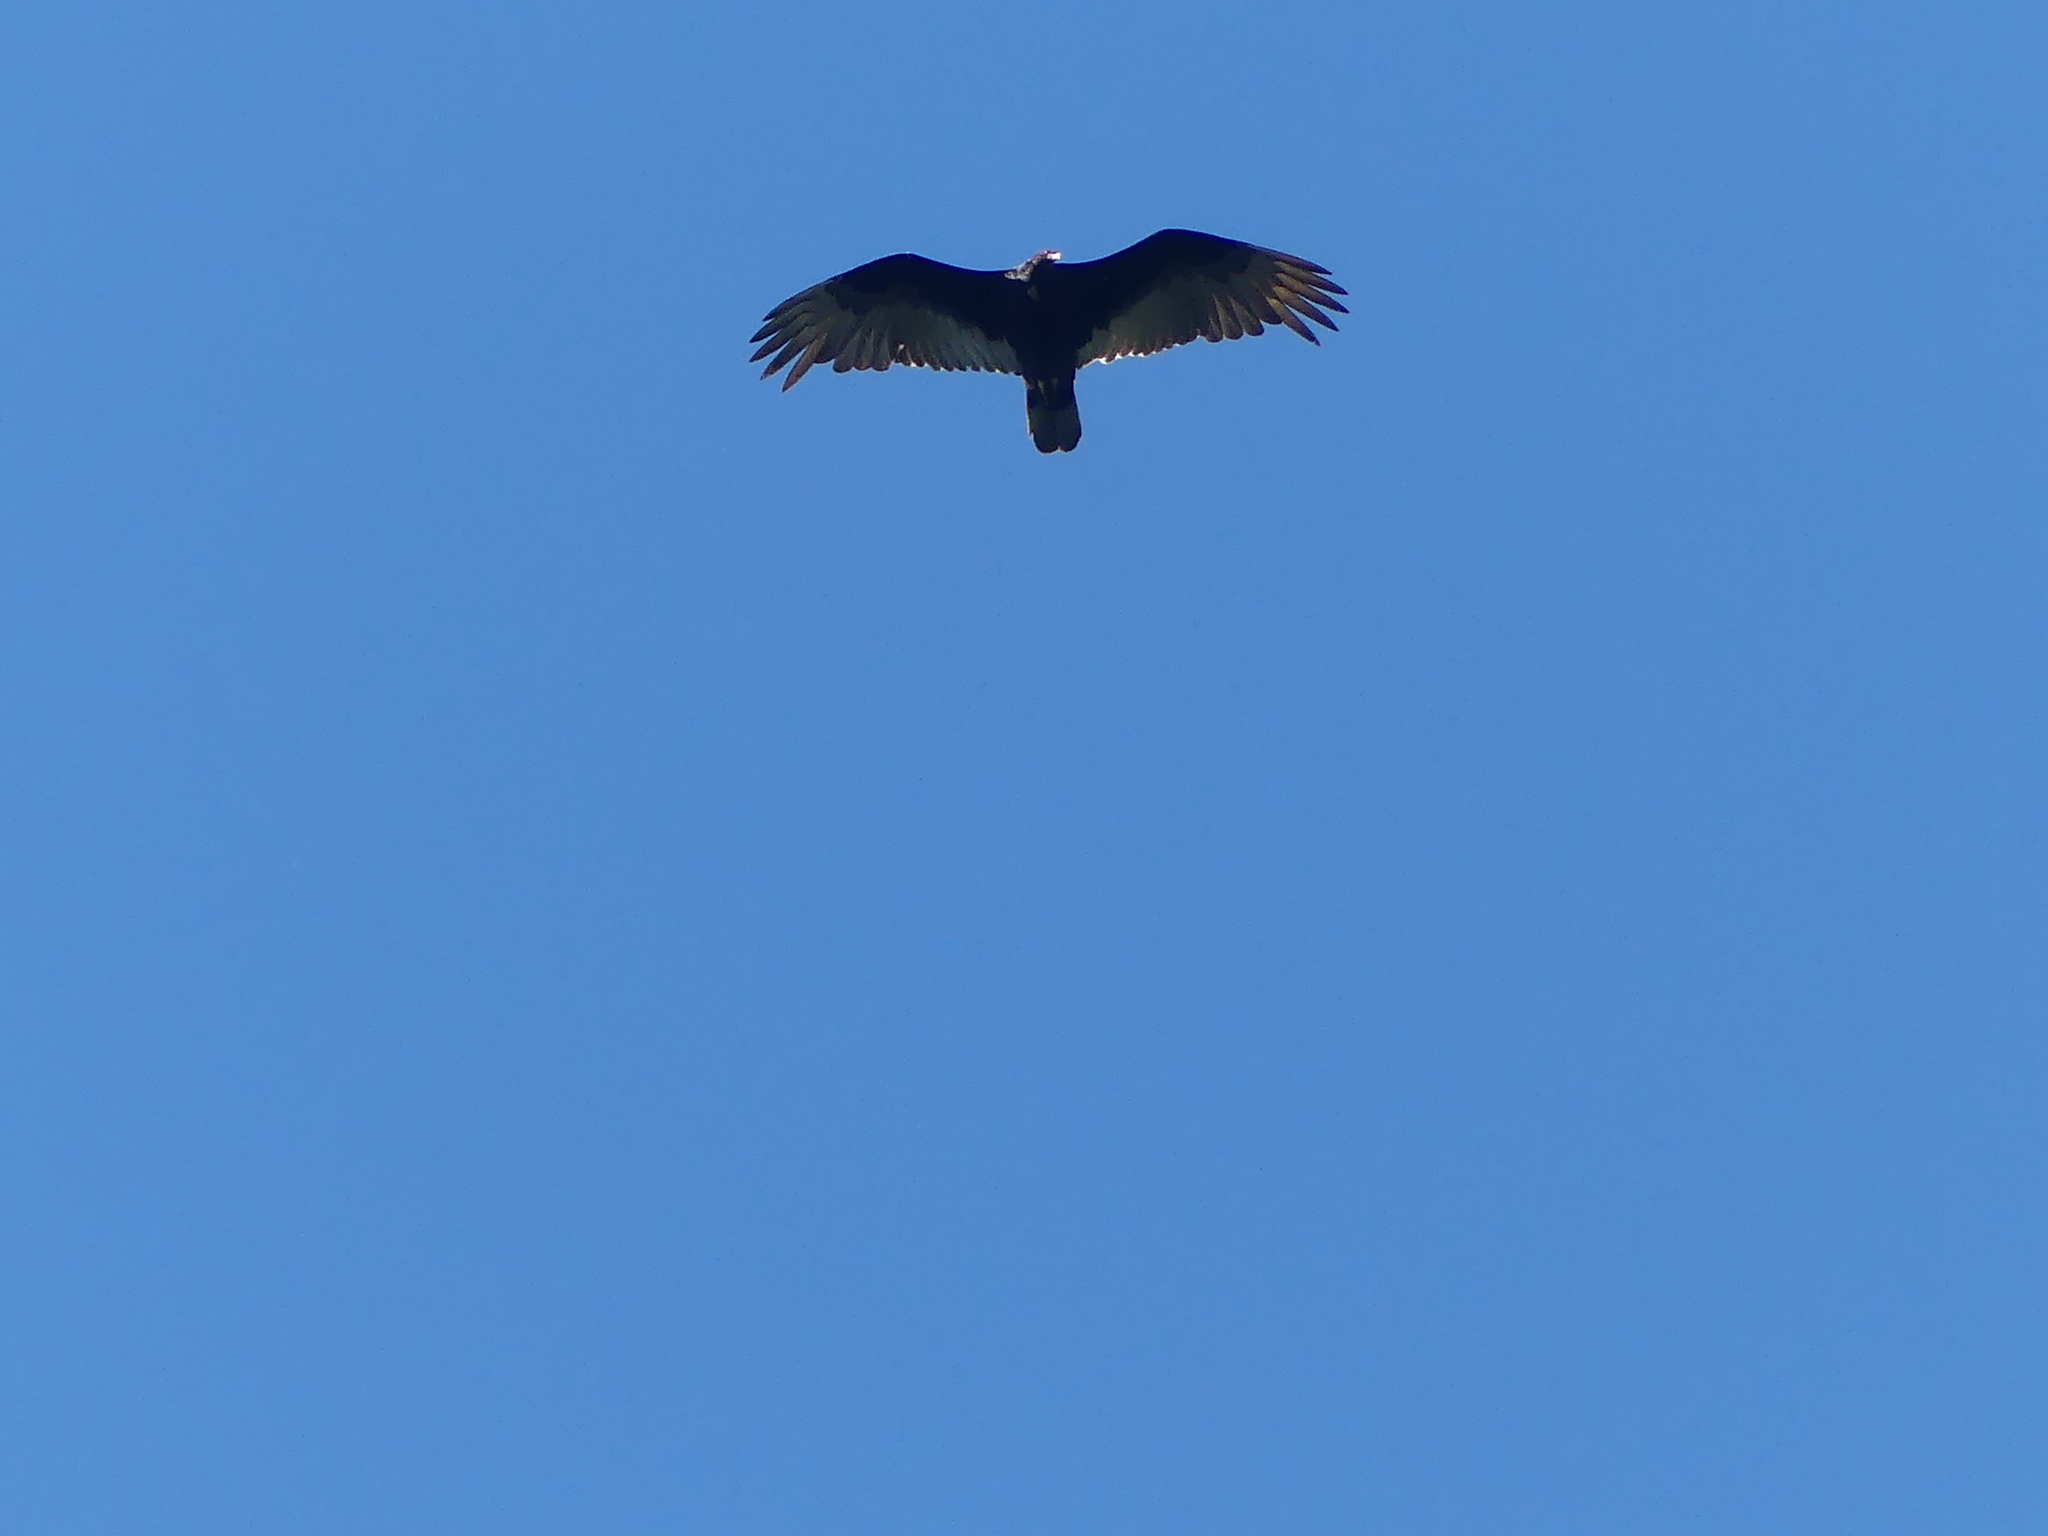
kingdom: Animalia
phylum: Chordata
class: Aves
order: Accipitriformes
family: Cathartidae
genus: Cathartes
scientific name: Cathartes aura
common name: Turkey vulture
